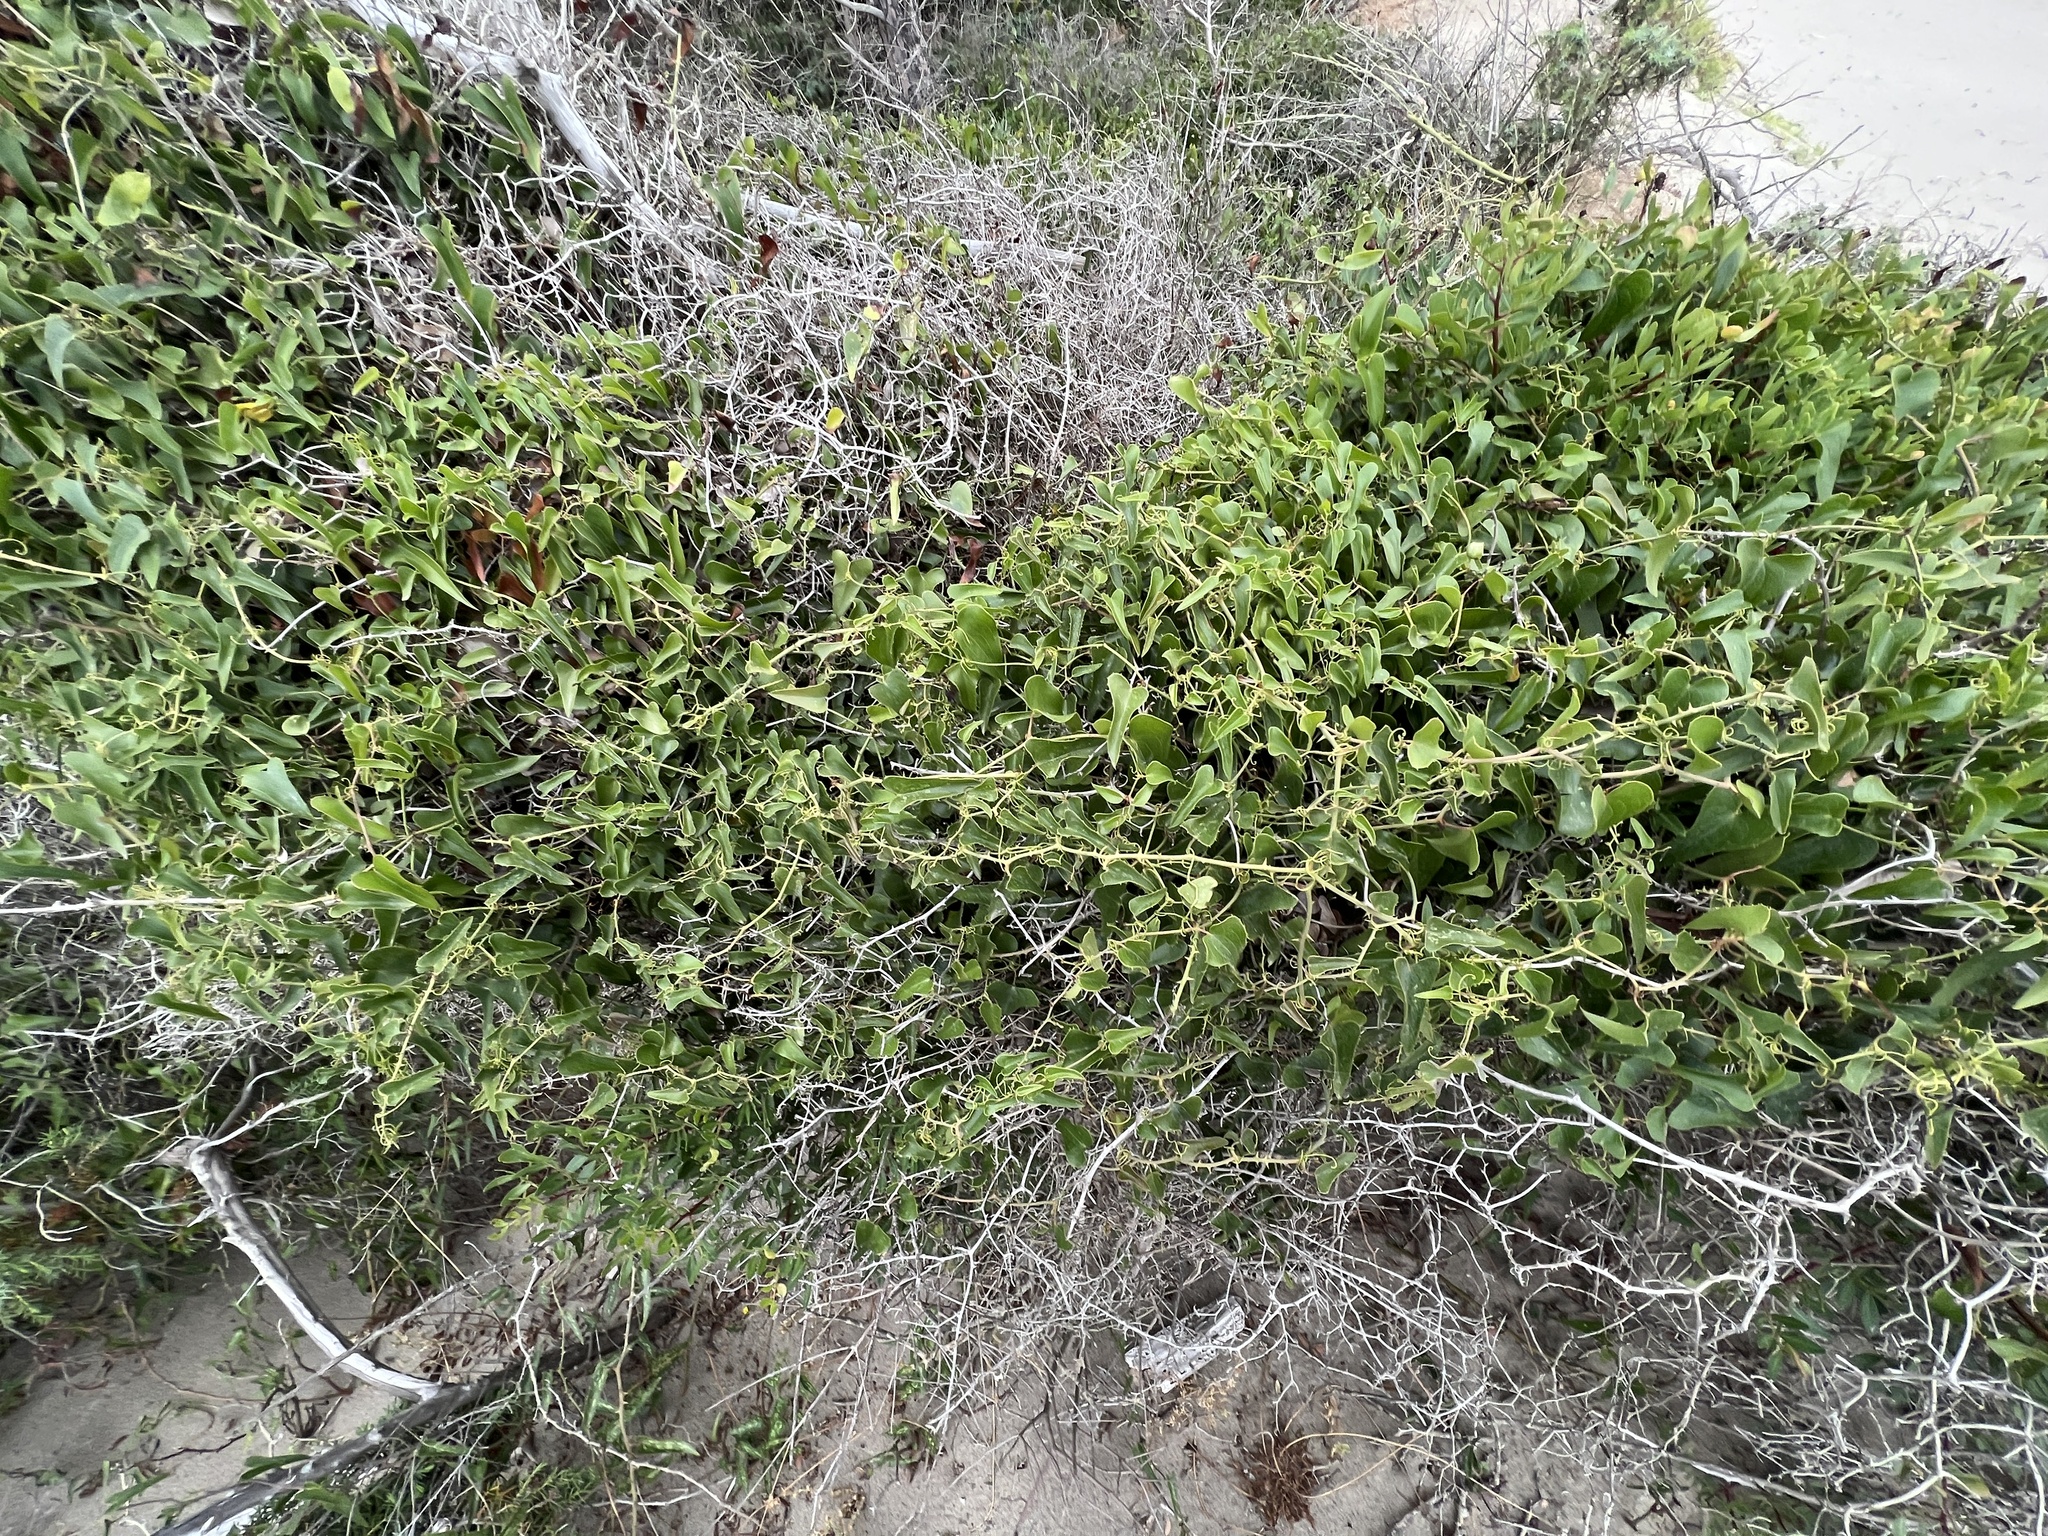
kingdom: Plantae
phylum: Tracheophyta
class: Liliopsida
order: Liliales
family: Smilacaceae
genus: Smilax
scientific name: Smilax aspera
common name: Common smilax
